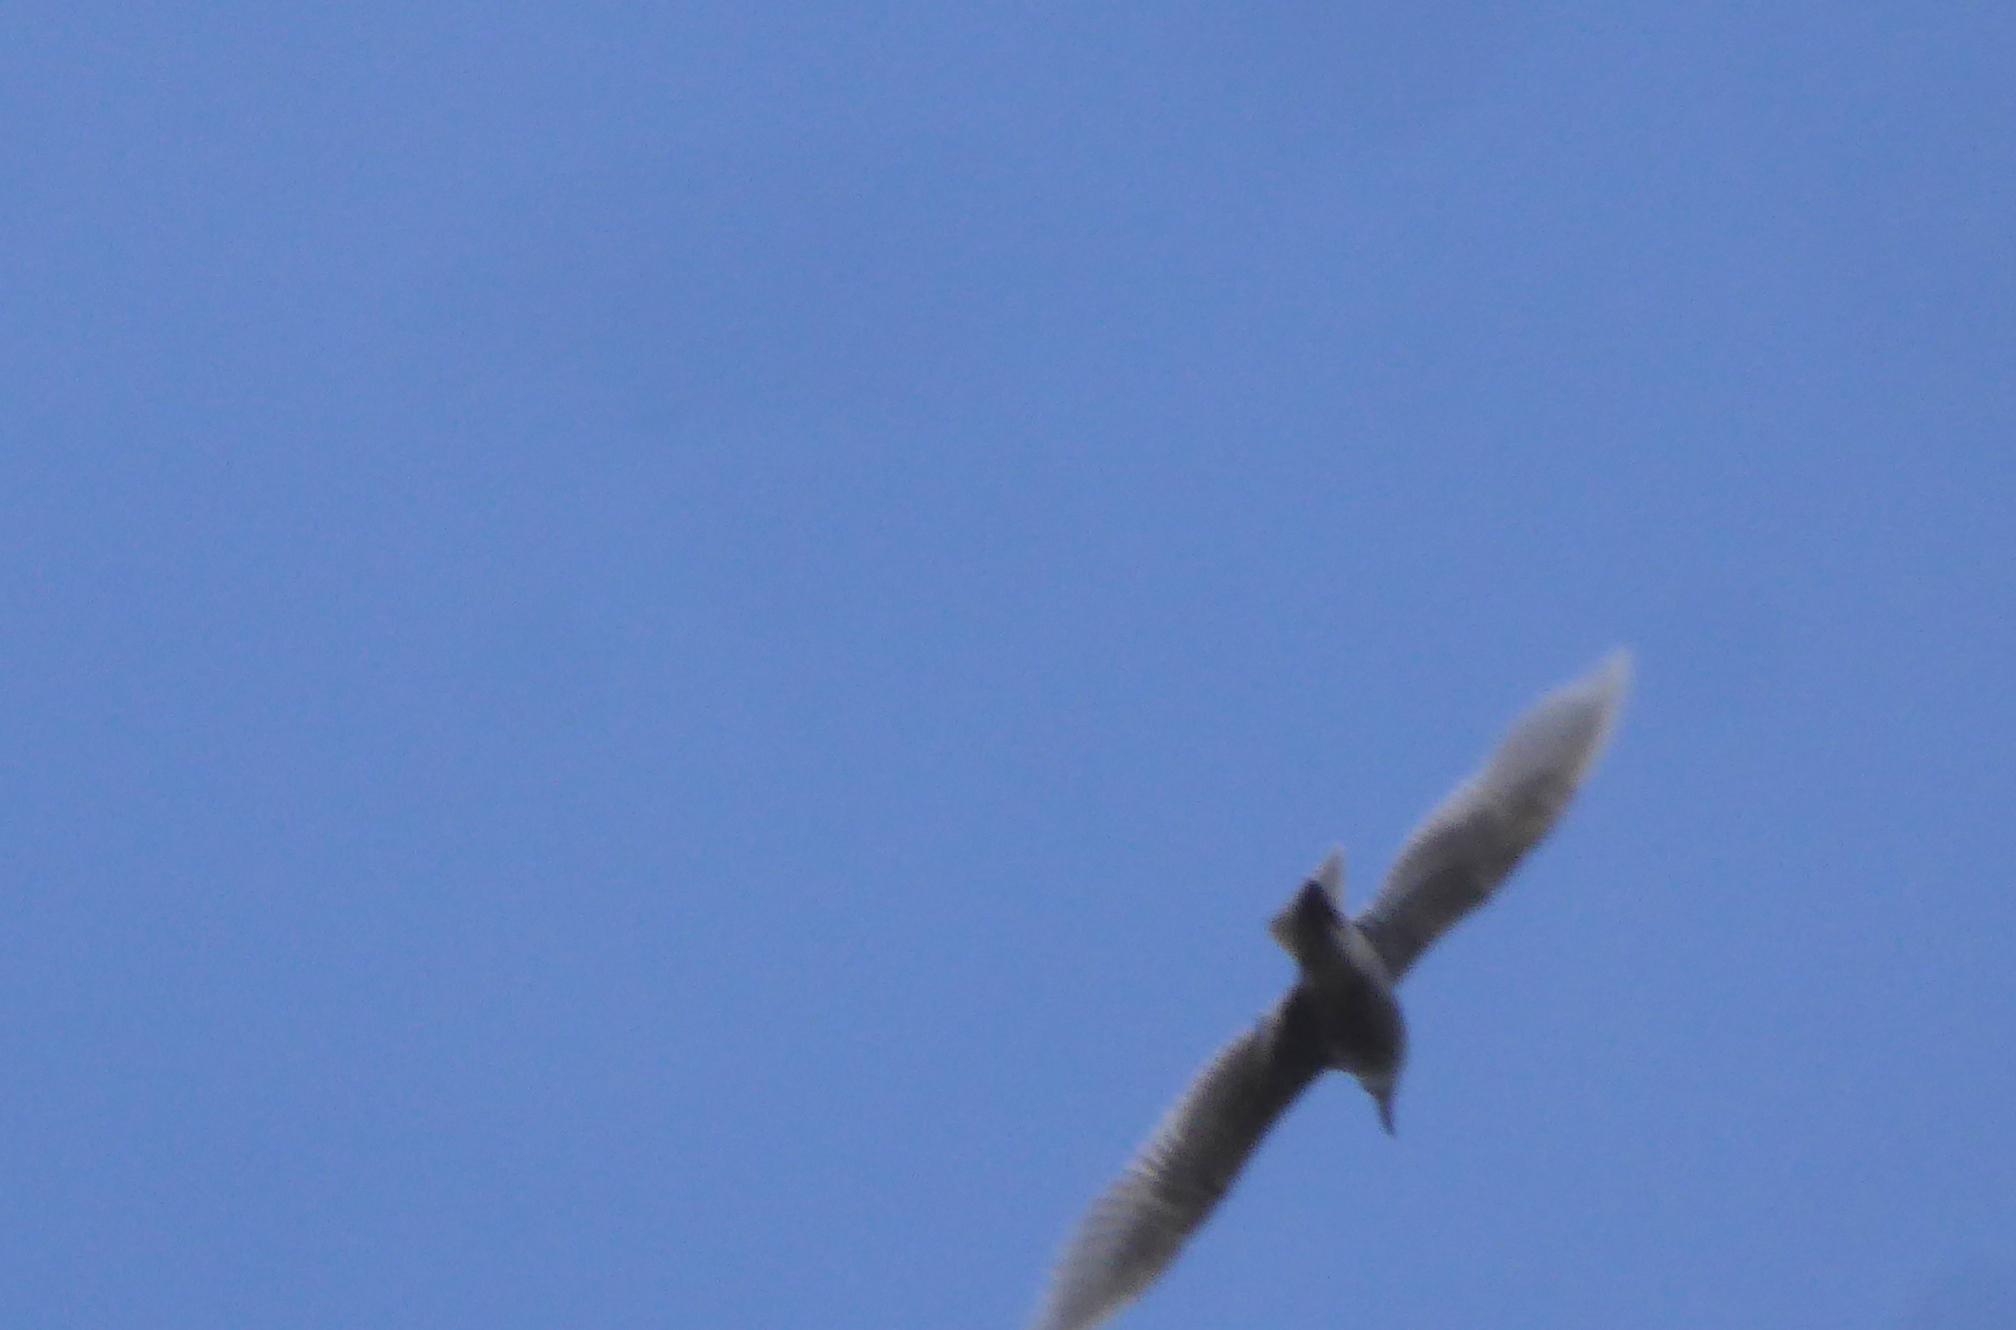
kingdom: Animalia
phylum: Chordata
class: Aves
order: Charadriiformes
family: Laridae
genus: Larus
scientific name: Larus glaucescens
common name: Glaucous-winged gull
